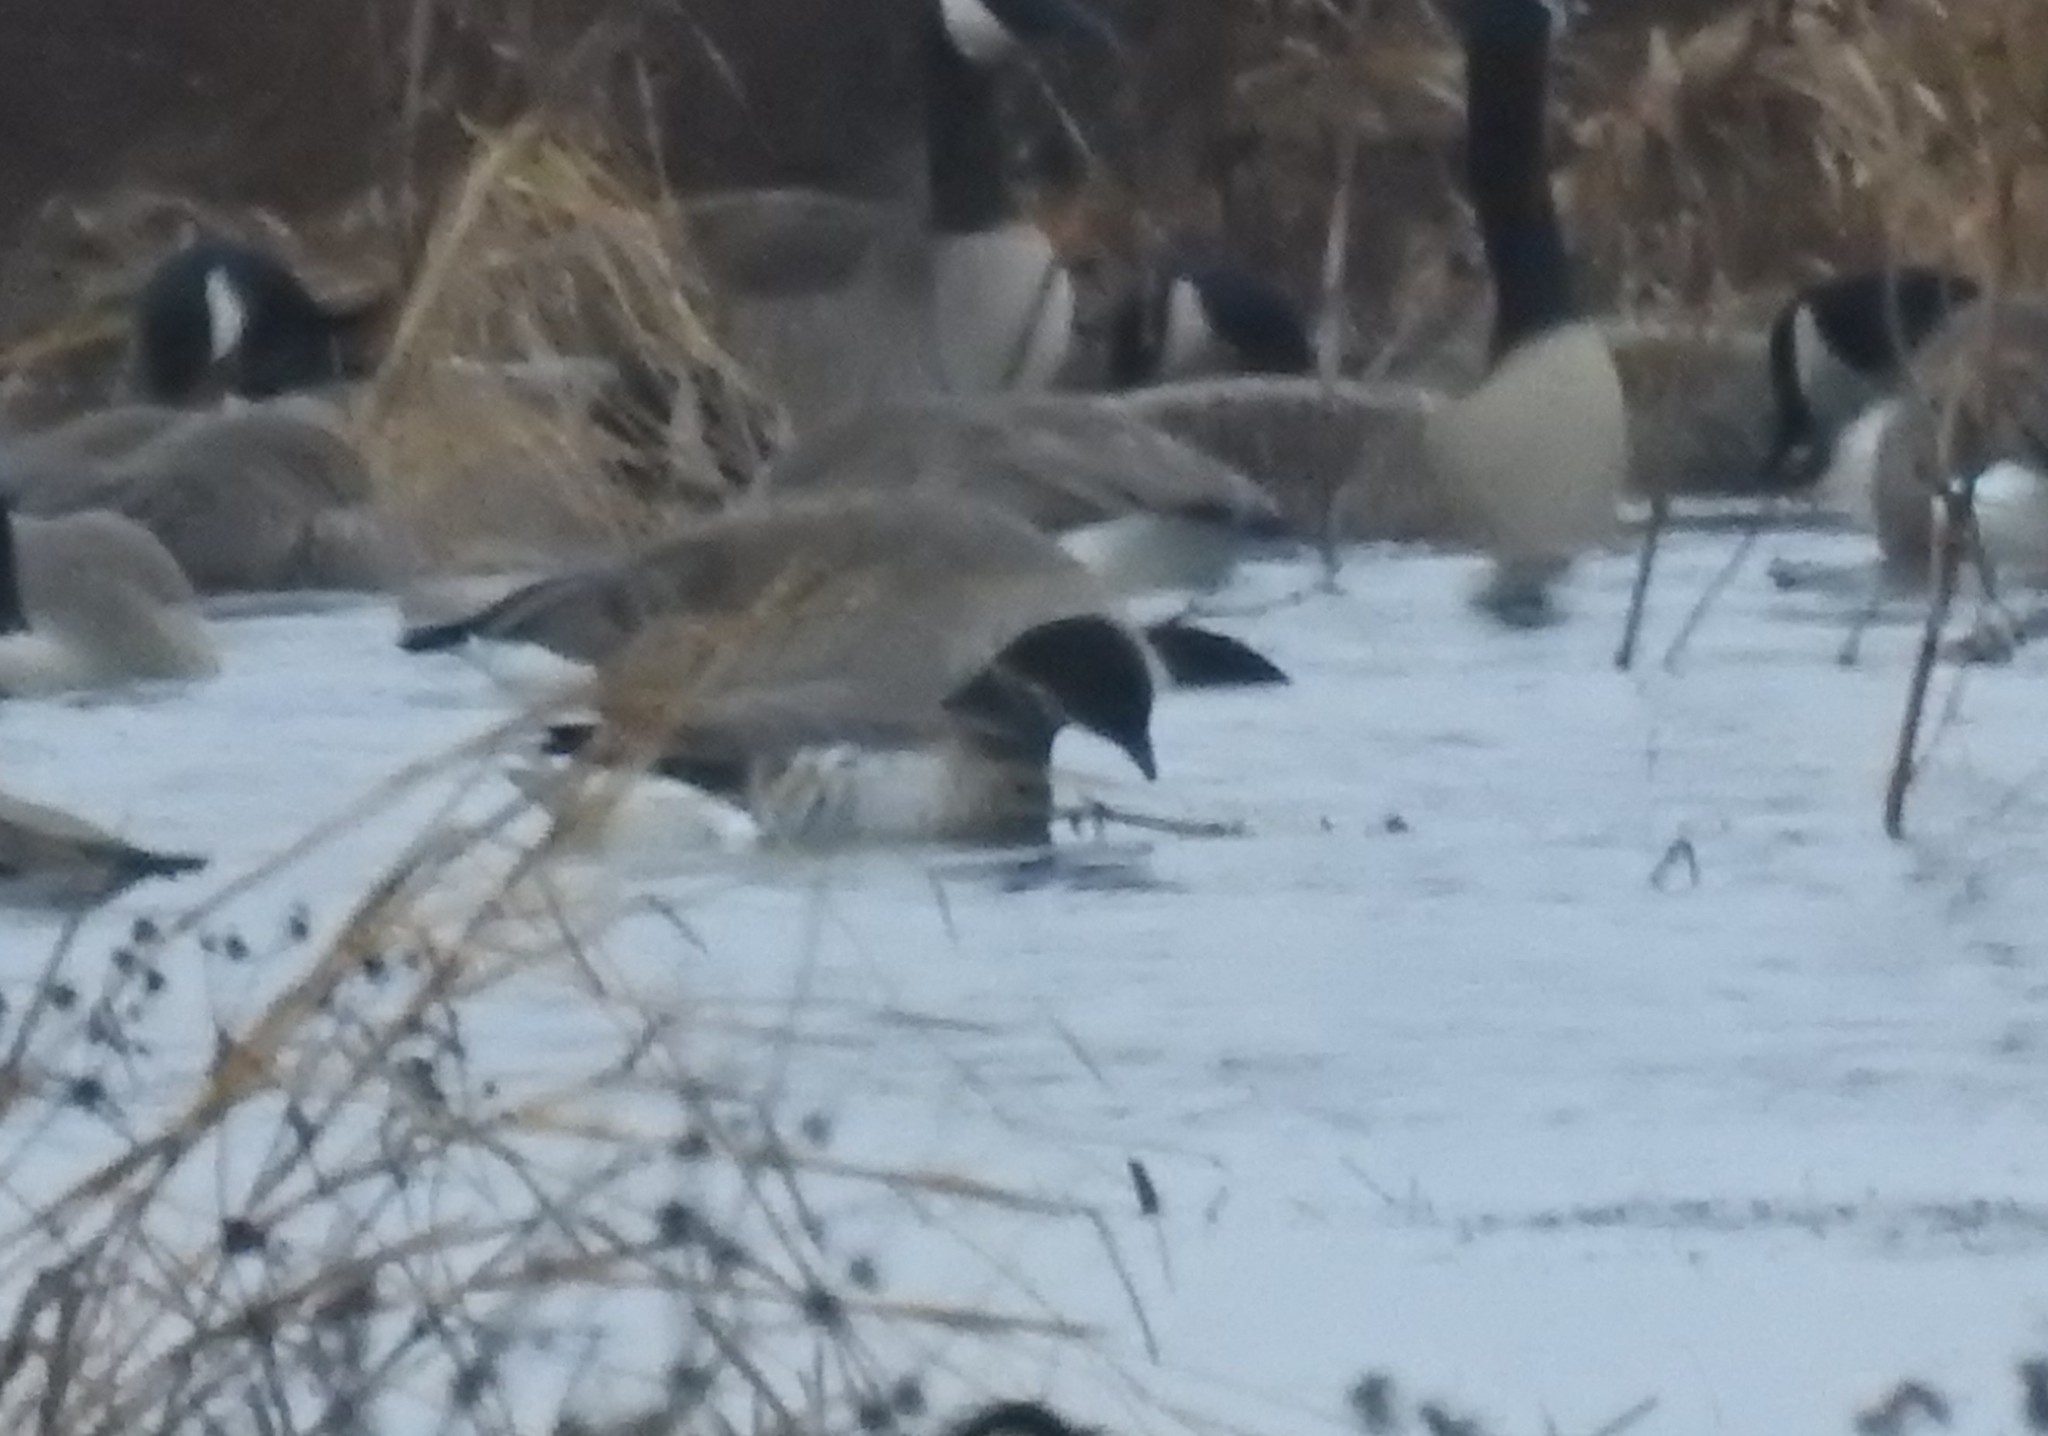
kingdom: Animalia
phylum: Chordata
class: Aves
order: Anseriformes
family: Anatidae
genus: Branta
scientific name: Branta bernicla
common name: Brant goose
